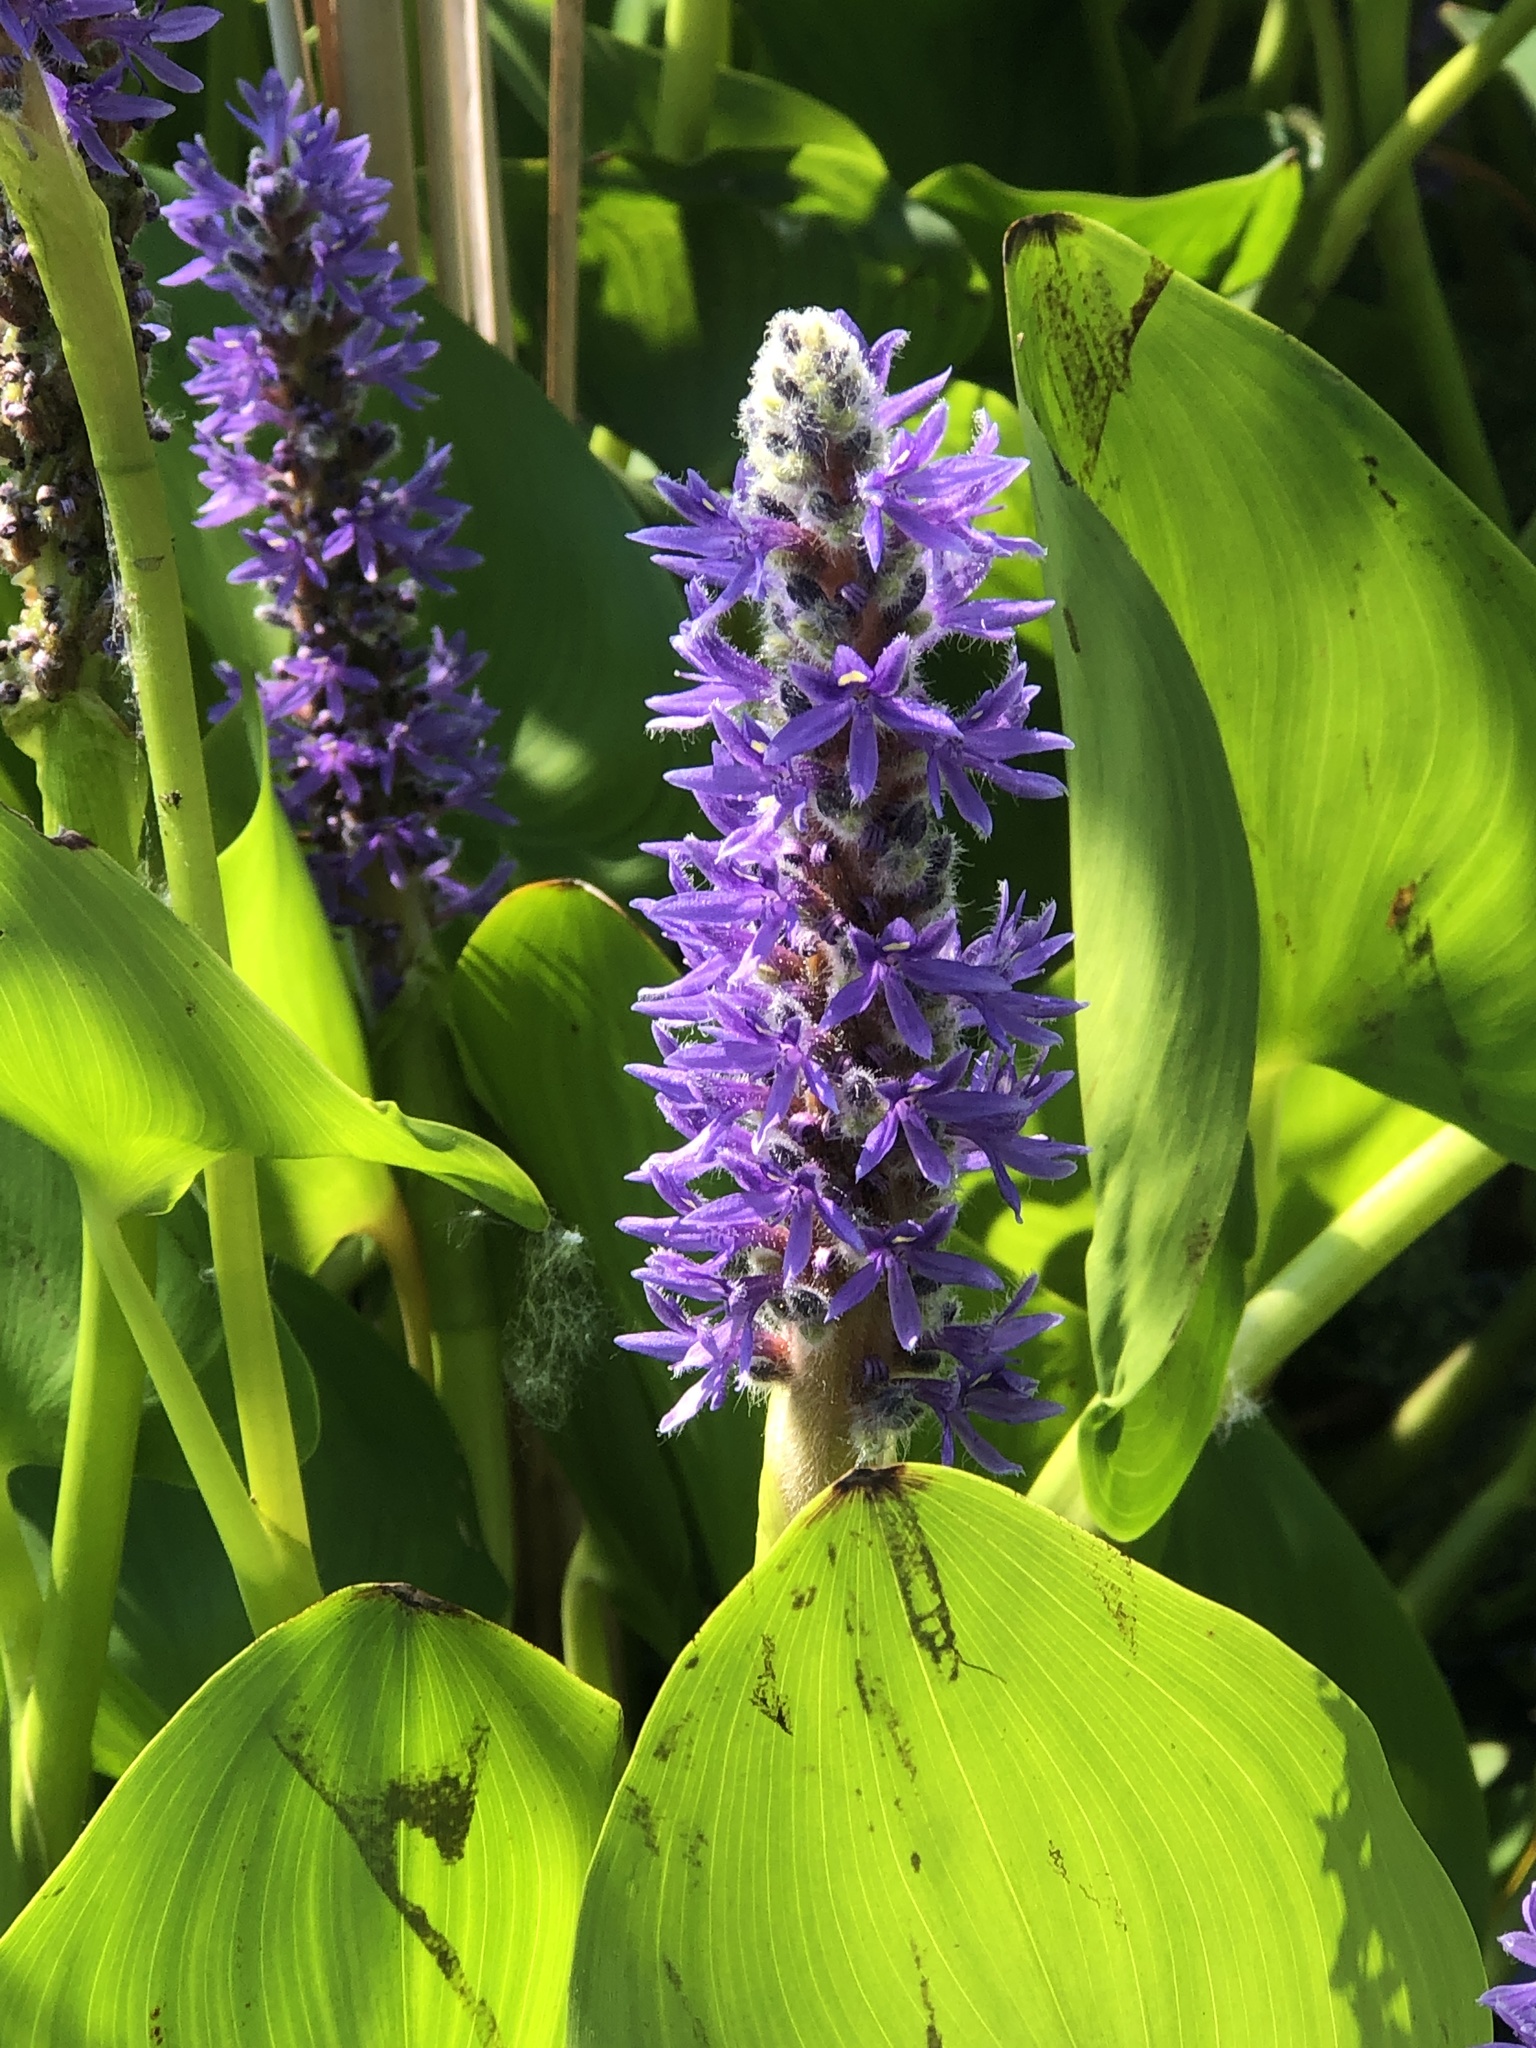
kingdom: Plantae
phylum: Tracheophyta
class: Liliopsida
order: Commelinales
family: Pontederiaceae
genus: Pontederia
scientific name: Pontederia cordata
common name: Pickerelweed
